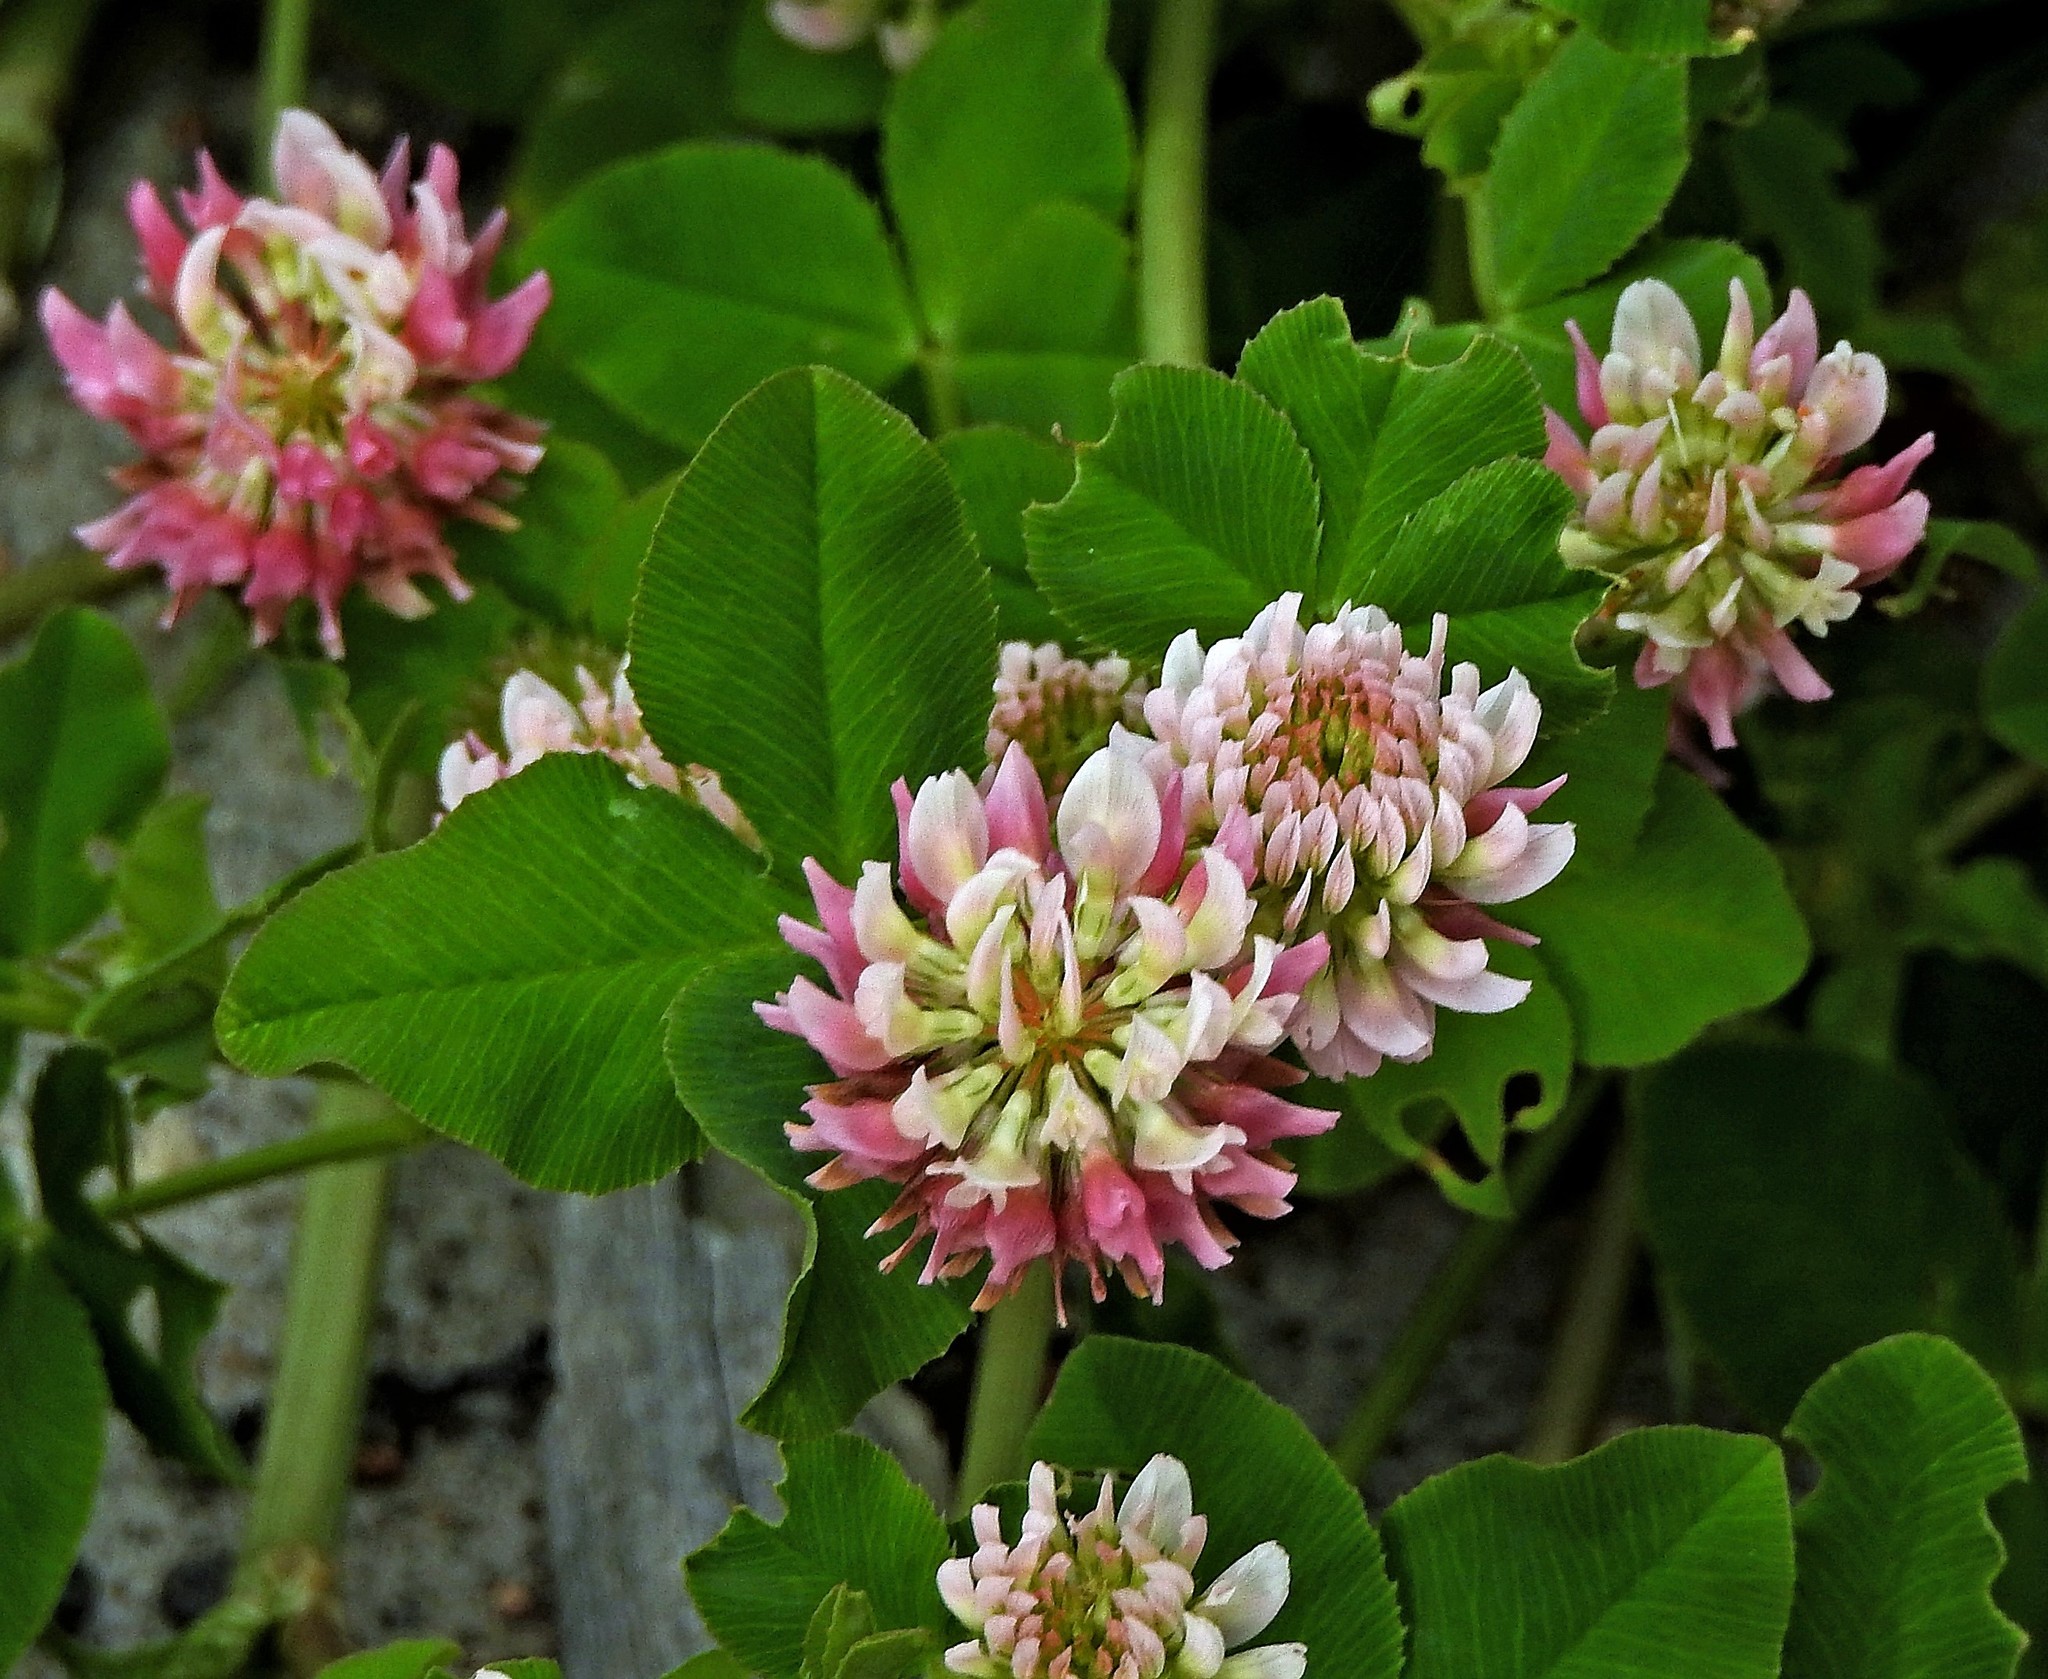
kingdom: Plantae
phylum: Tracheophyta
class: Magnoliopsida
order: Fabales
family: Fabaceae
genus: Trifolium
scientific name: Trifolium hybridum
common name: Alsike clover
